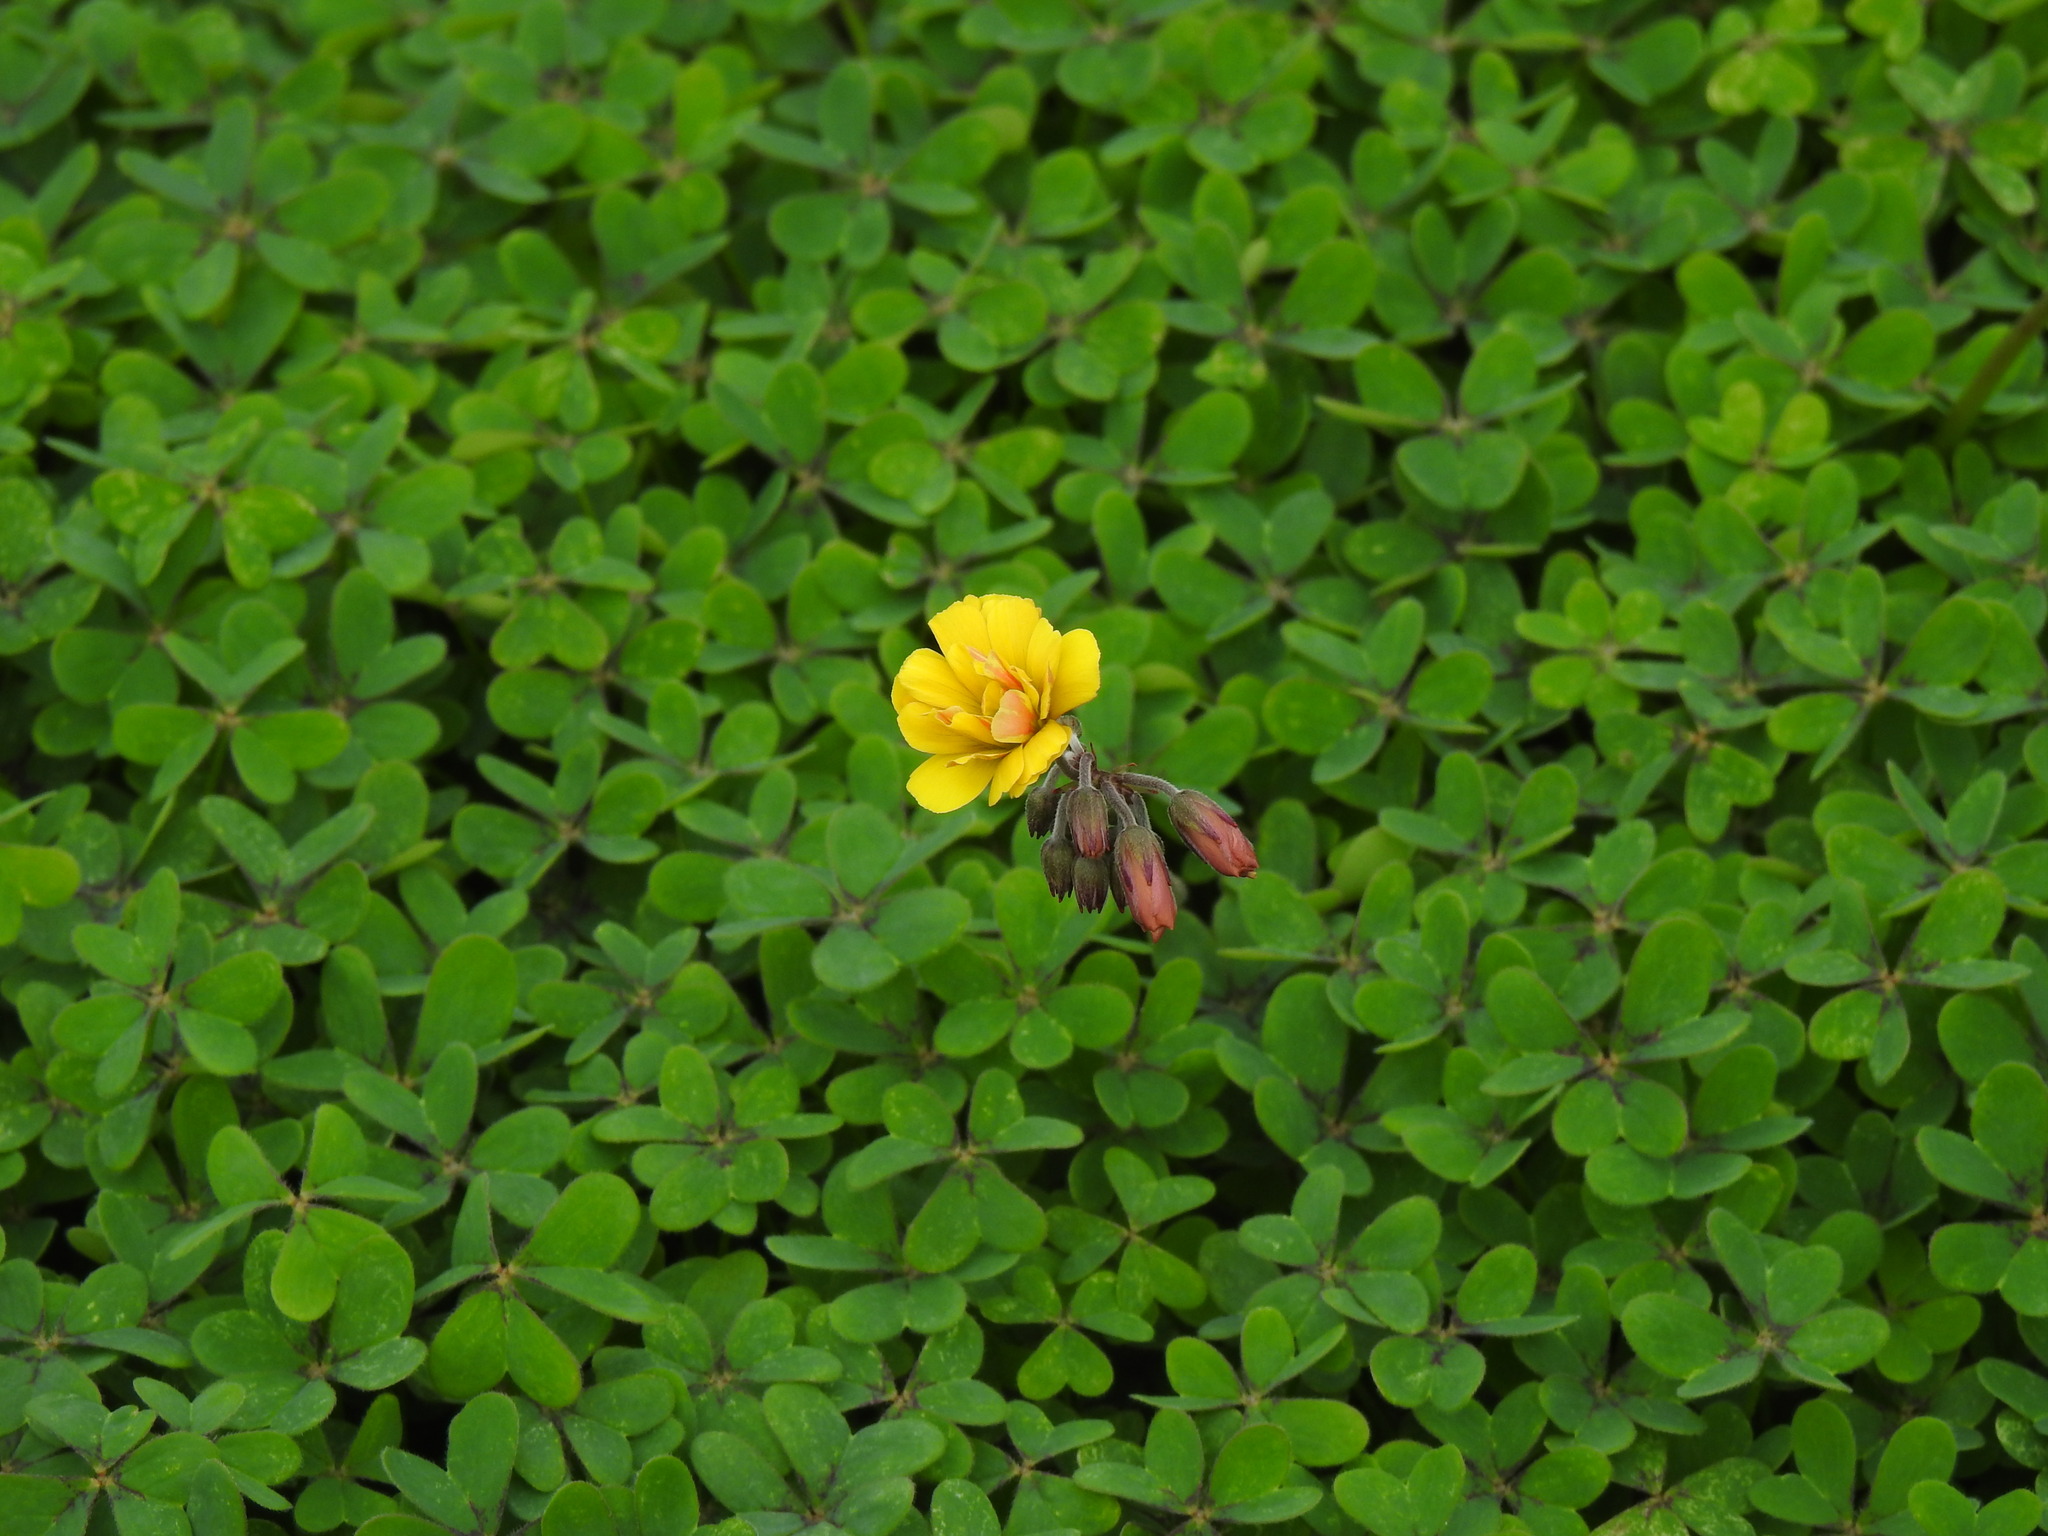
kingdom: Plantae
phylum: Tracheophyta
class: Magnoliopsida
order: Oxalidales
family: Oxalidaceae
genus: Oxalis
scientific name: Oxalis pes-caprae
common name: Bermuda-buttercup
